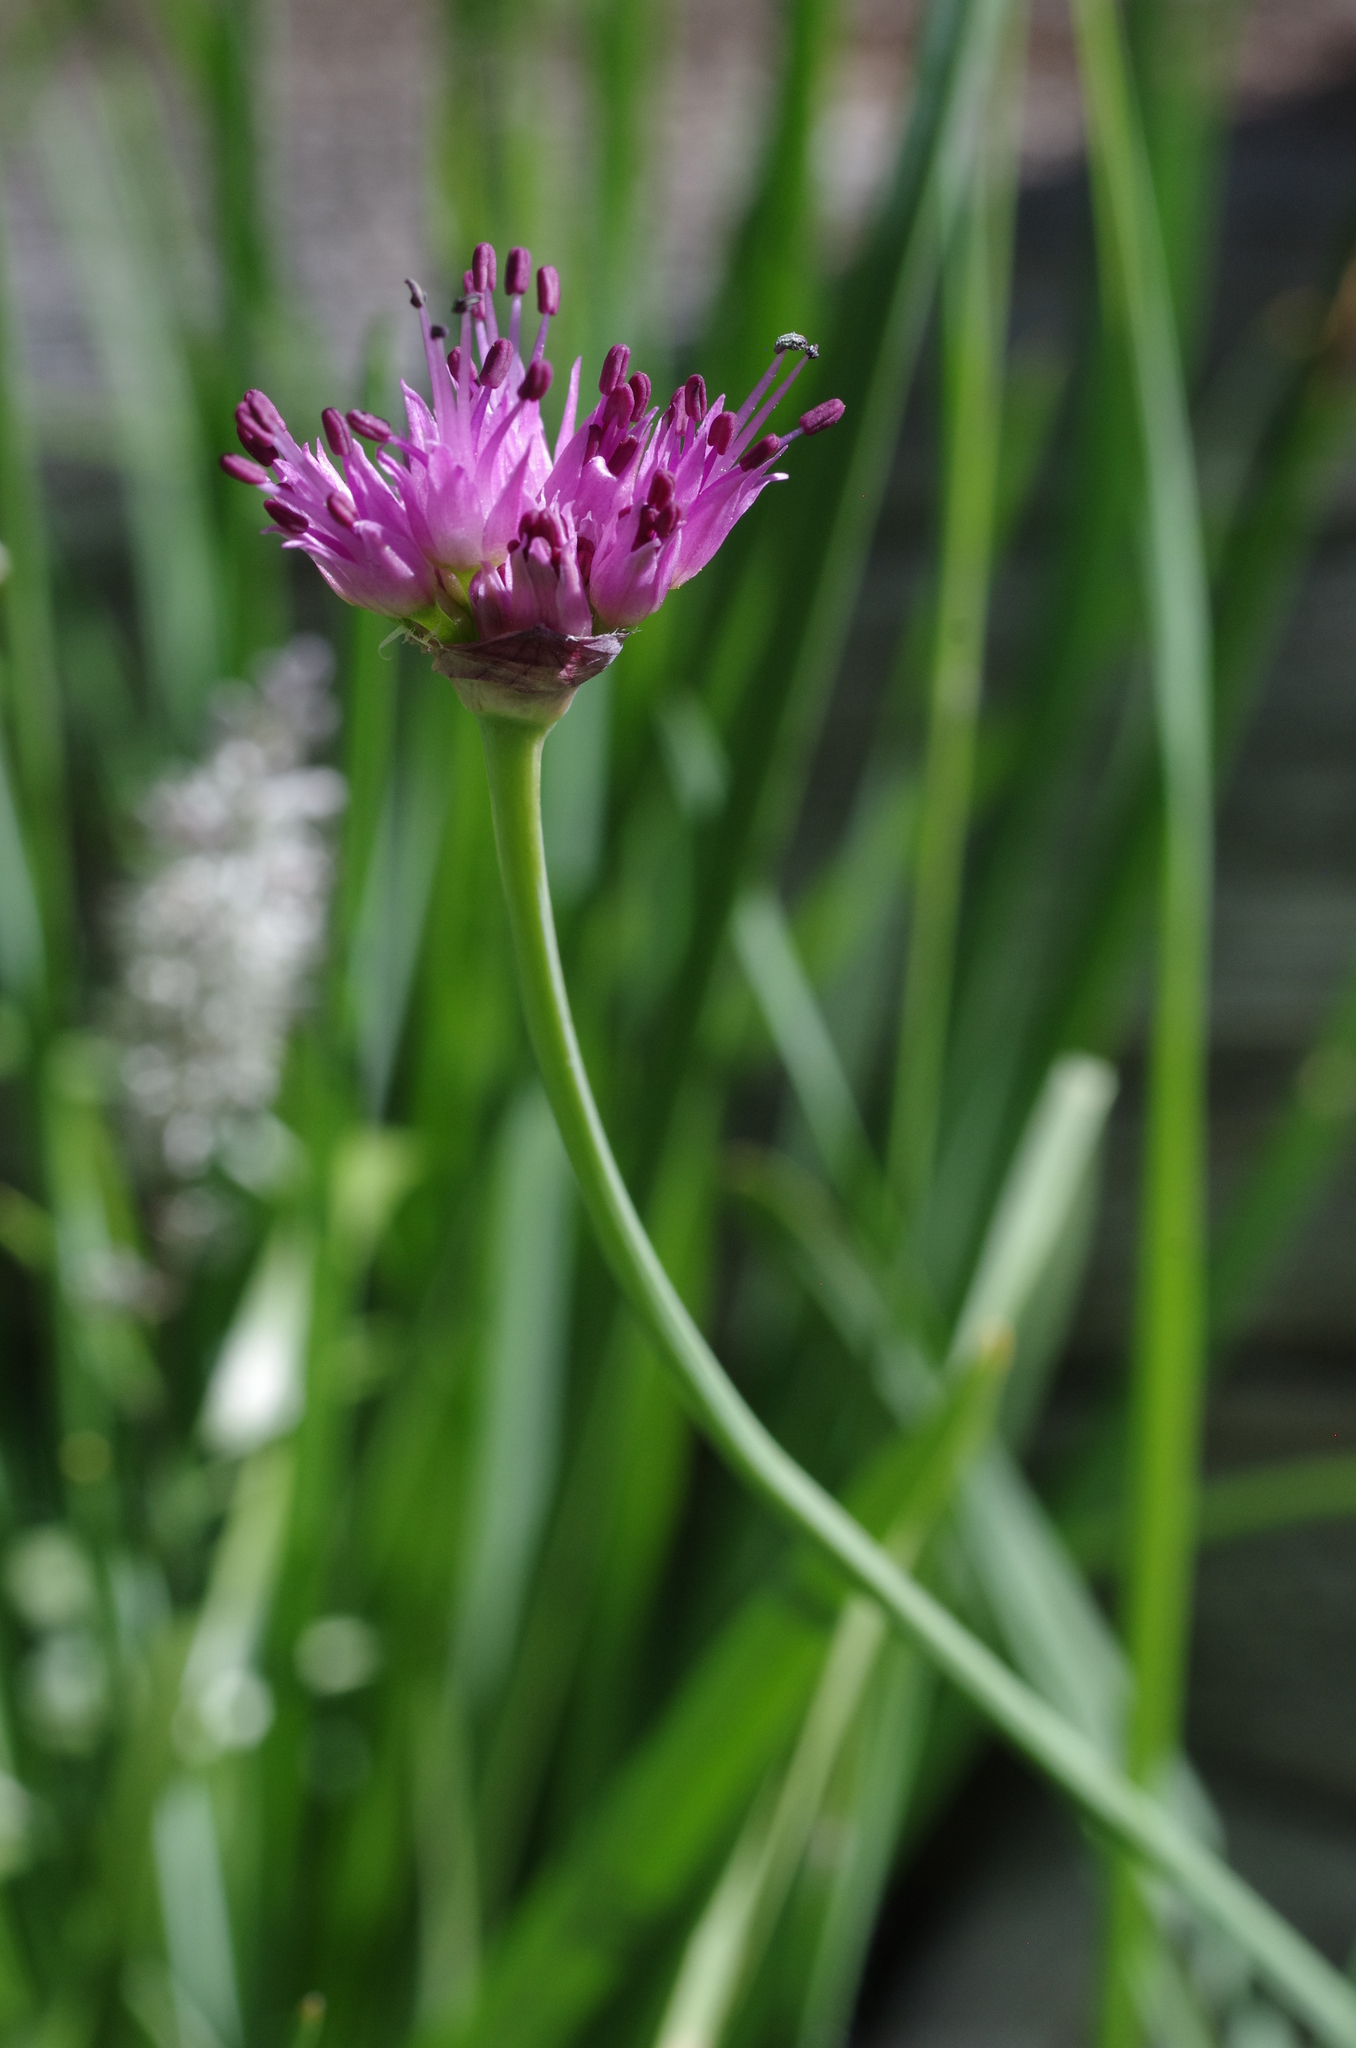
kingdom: Plantae
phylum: Tracheophyta
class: Liliopsida
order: Asparagales
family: Amaryllidaceae
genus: Allium
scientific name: Allium validum
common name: Pacific mountain onion
